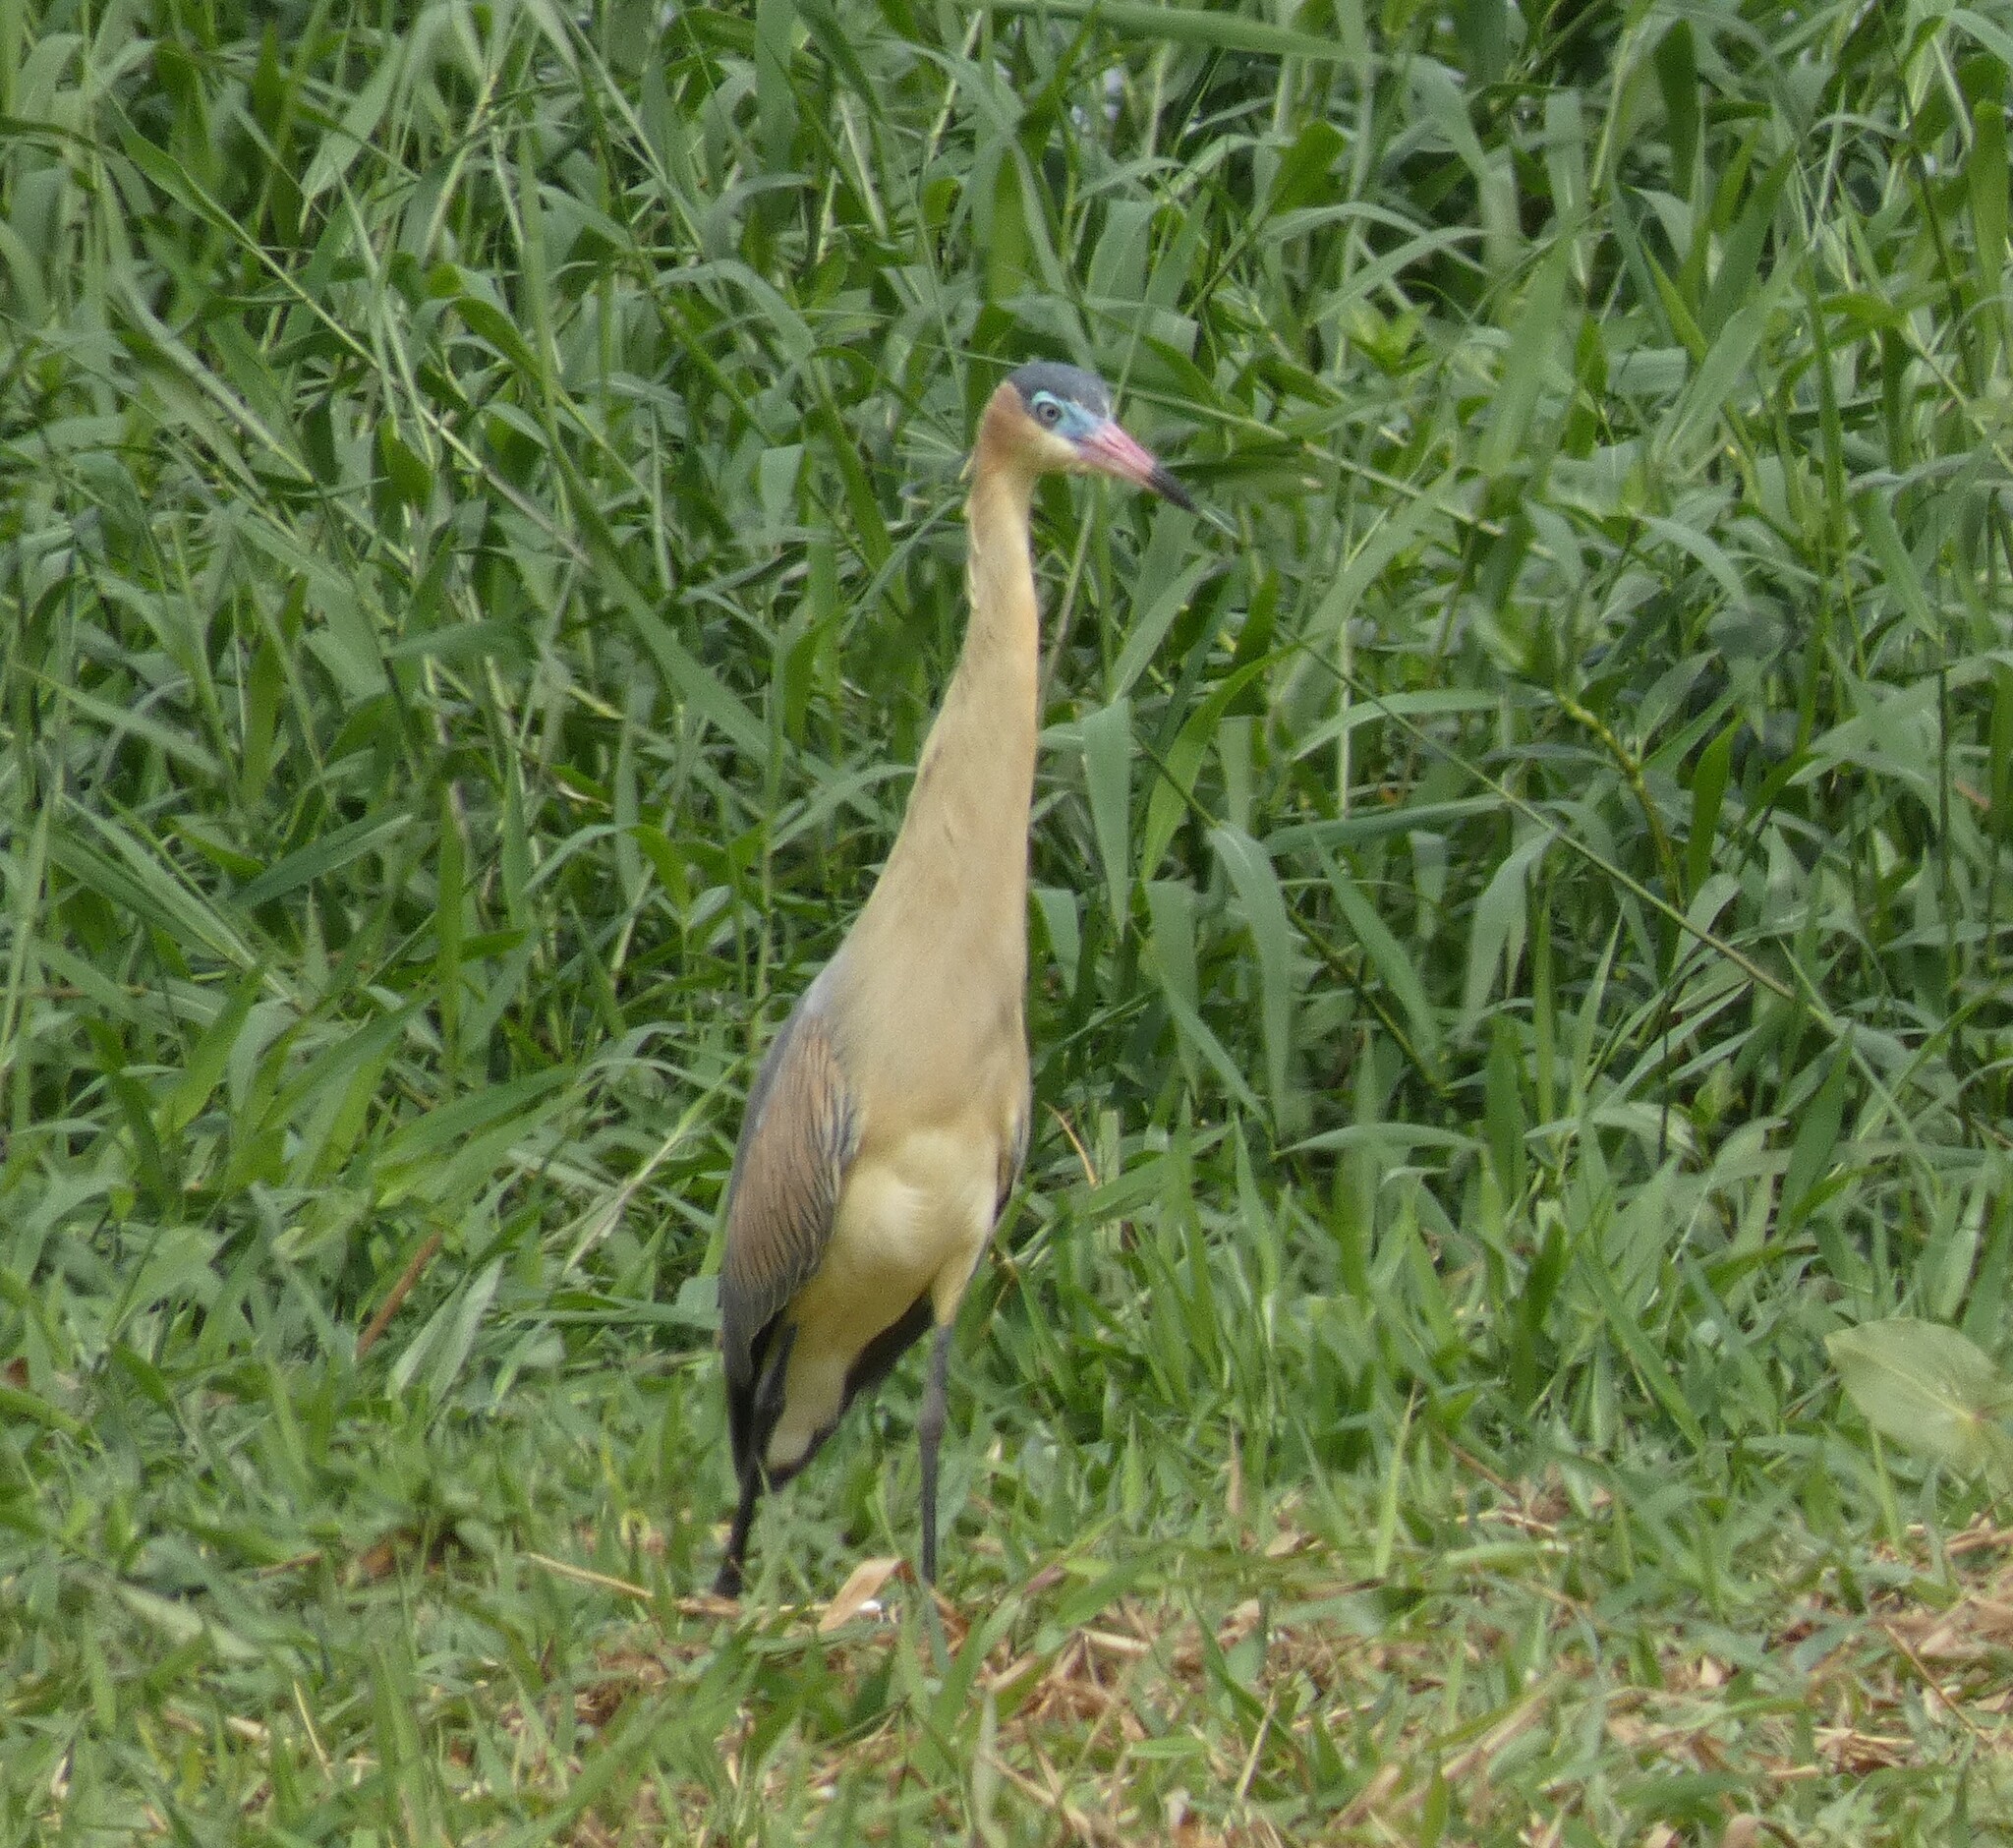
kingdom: Animalia
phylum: Chordata
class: Aves
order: Pelecaniformes
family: Ardeidae
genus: Syrigma
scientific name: Syrigma sibilatrix
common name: Whistling heron
